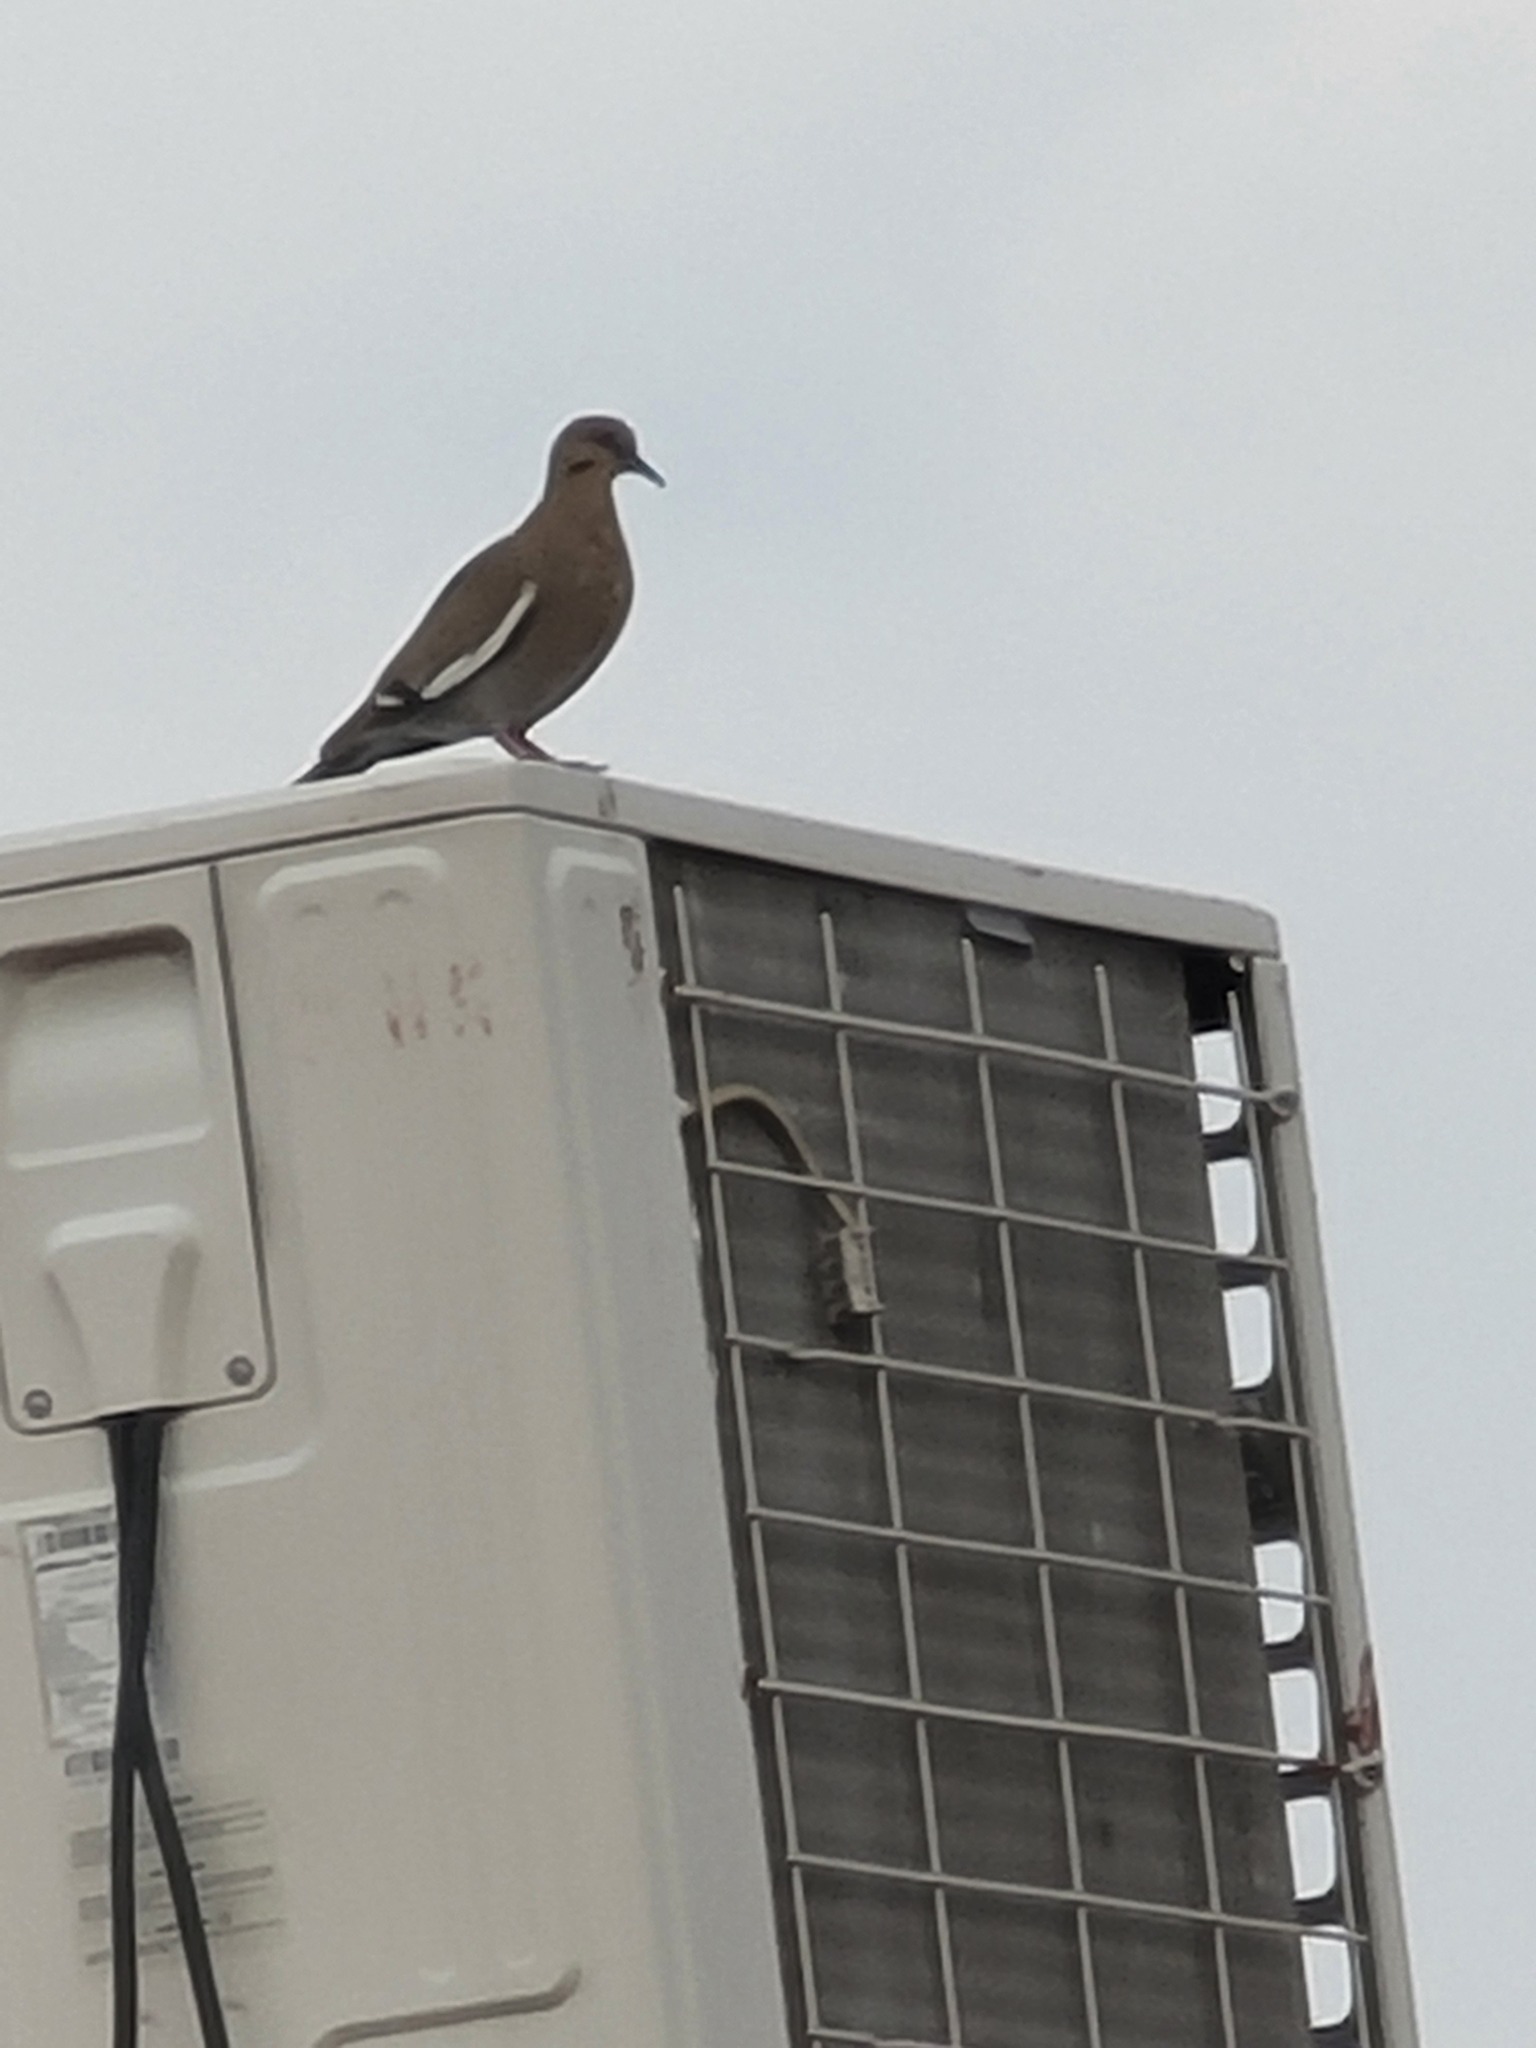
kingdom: Animalia
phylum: Chordata
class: Aves
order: Columbiformes
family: Columbidae
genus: Zenaida
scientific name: Zenaida asiatica
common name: White-winged dove
